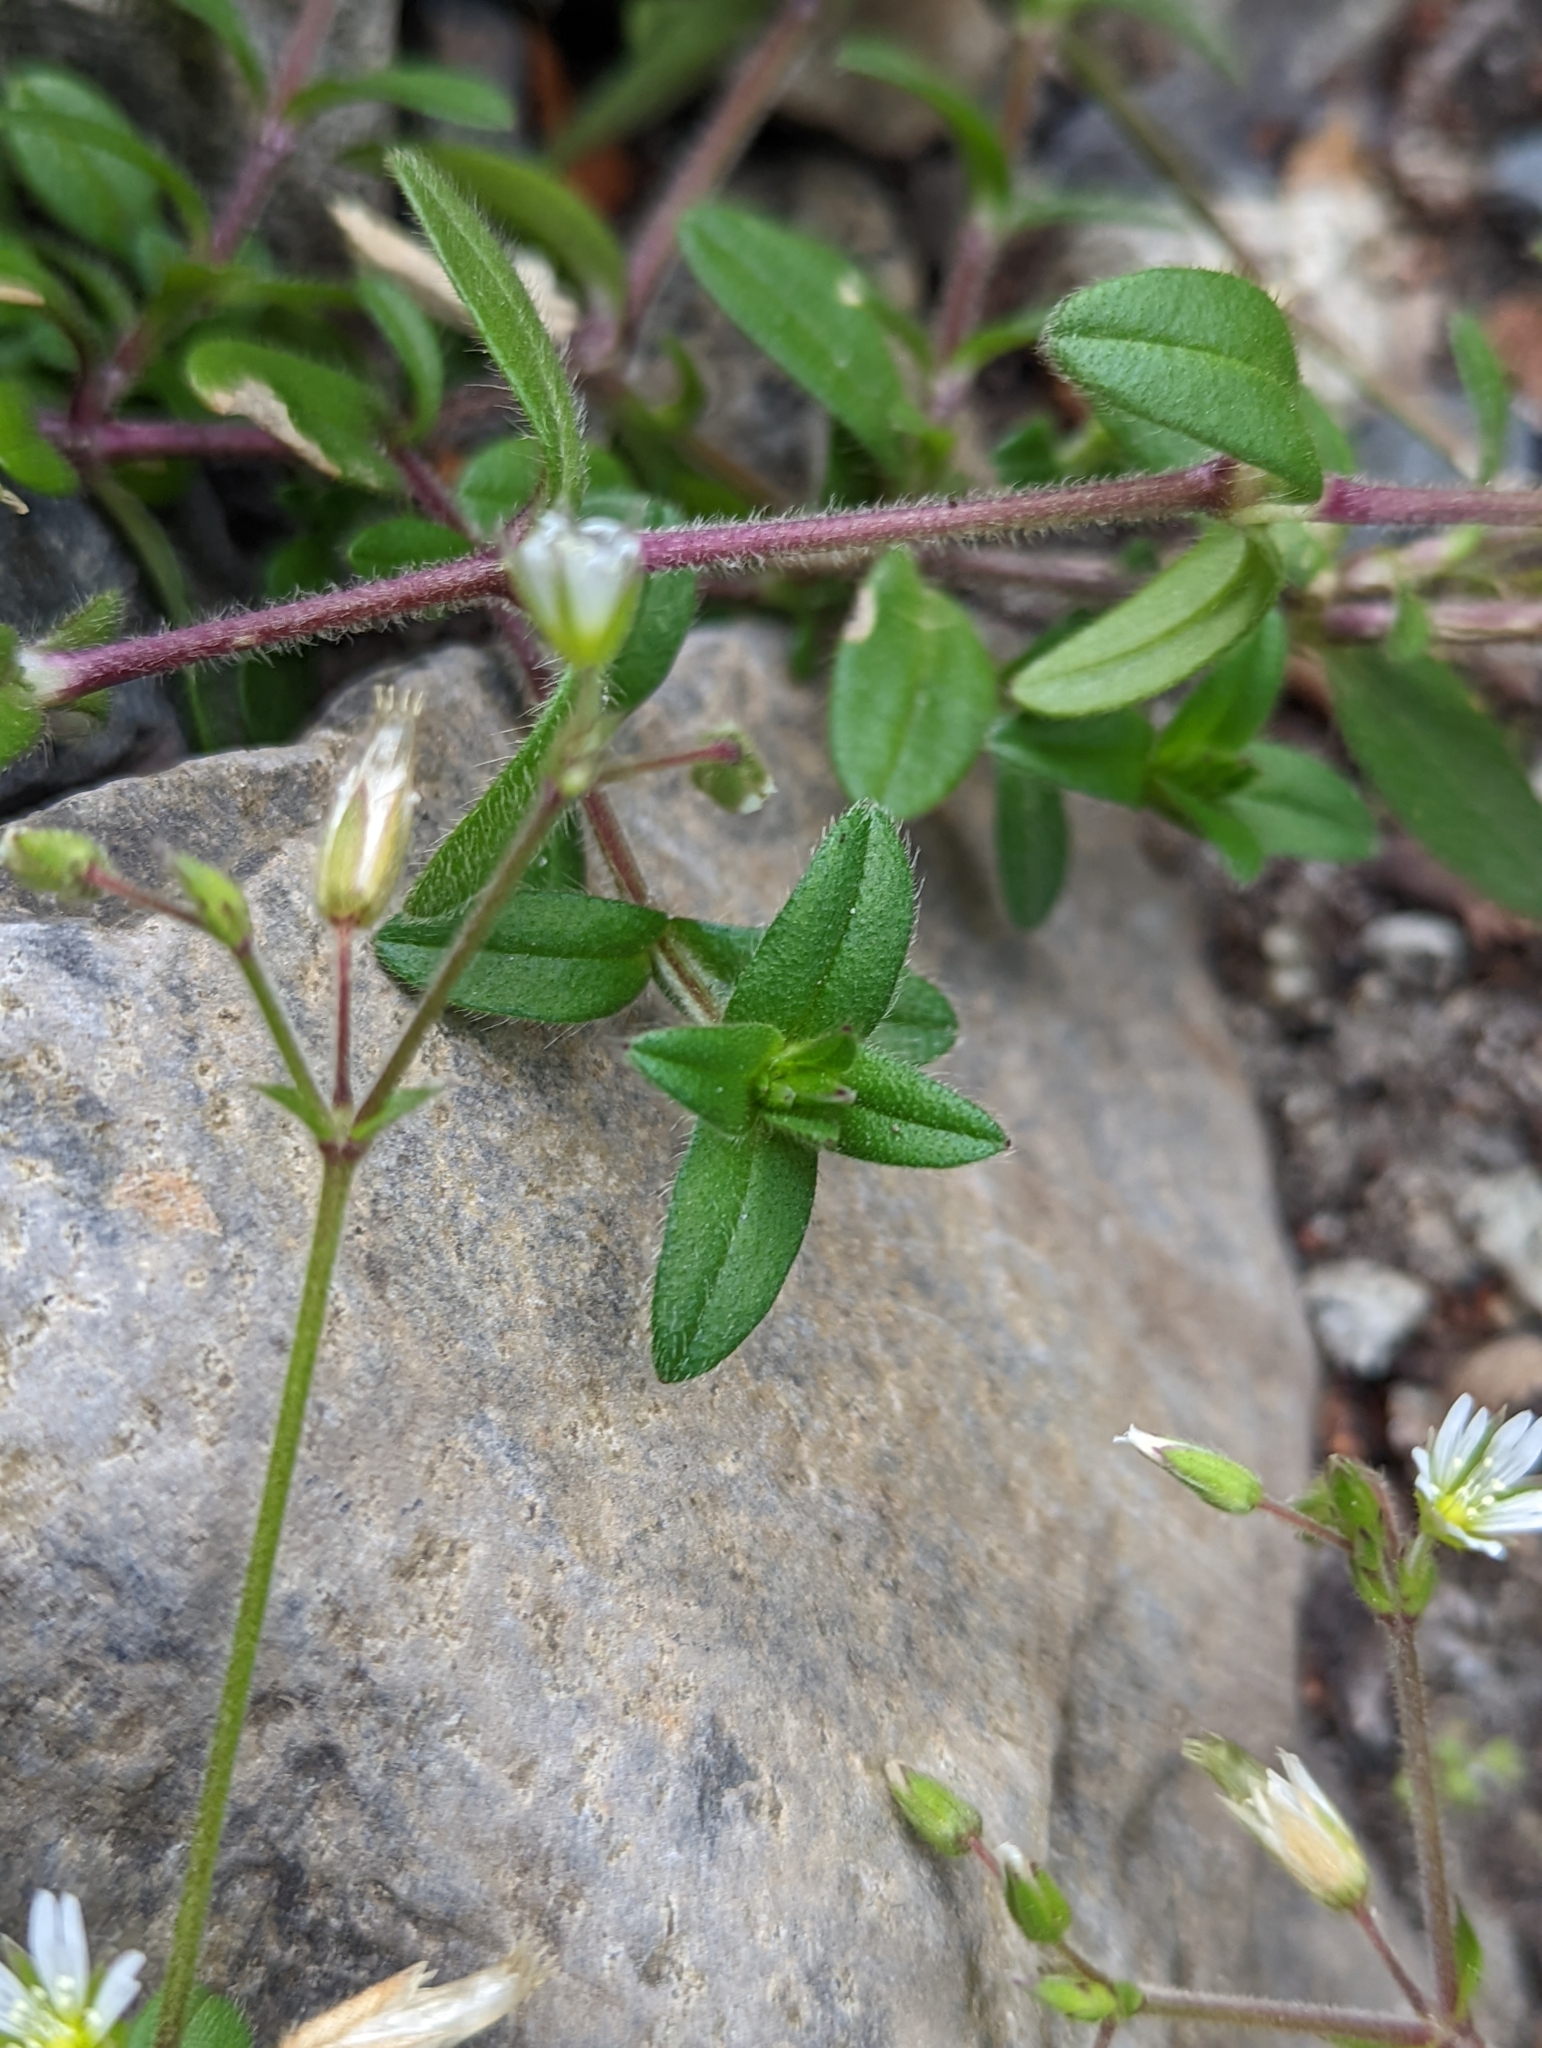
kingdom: Plantae
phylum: Tracheophyta
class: Magnoliopsida
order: Caryophyllales
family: Caryophyllaceae
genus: Cerastium
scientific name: Cerastium fontanum
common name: Common mouse-ear
